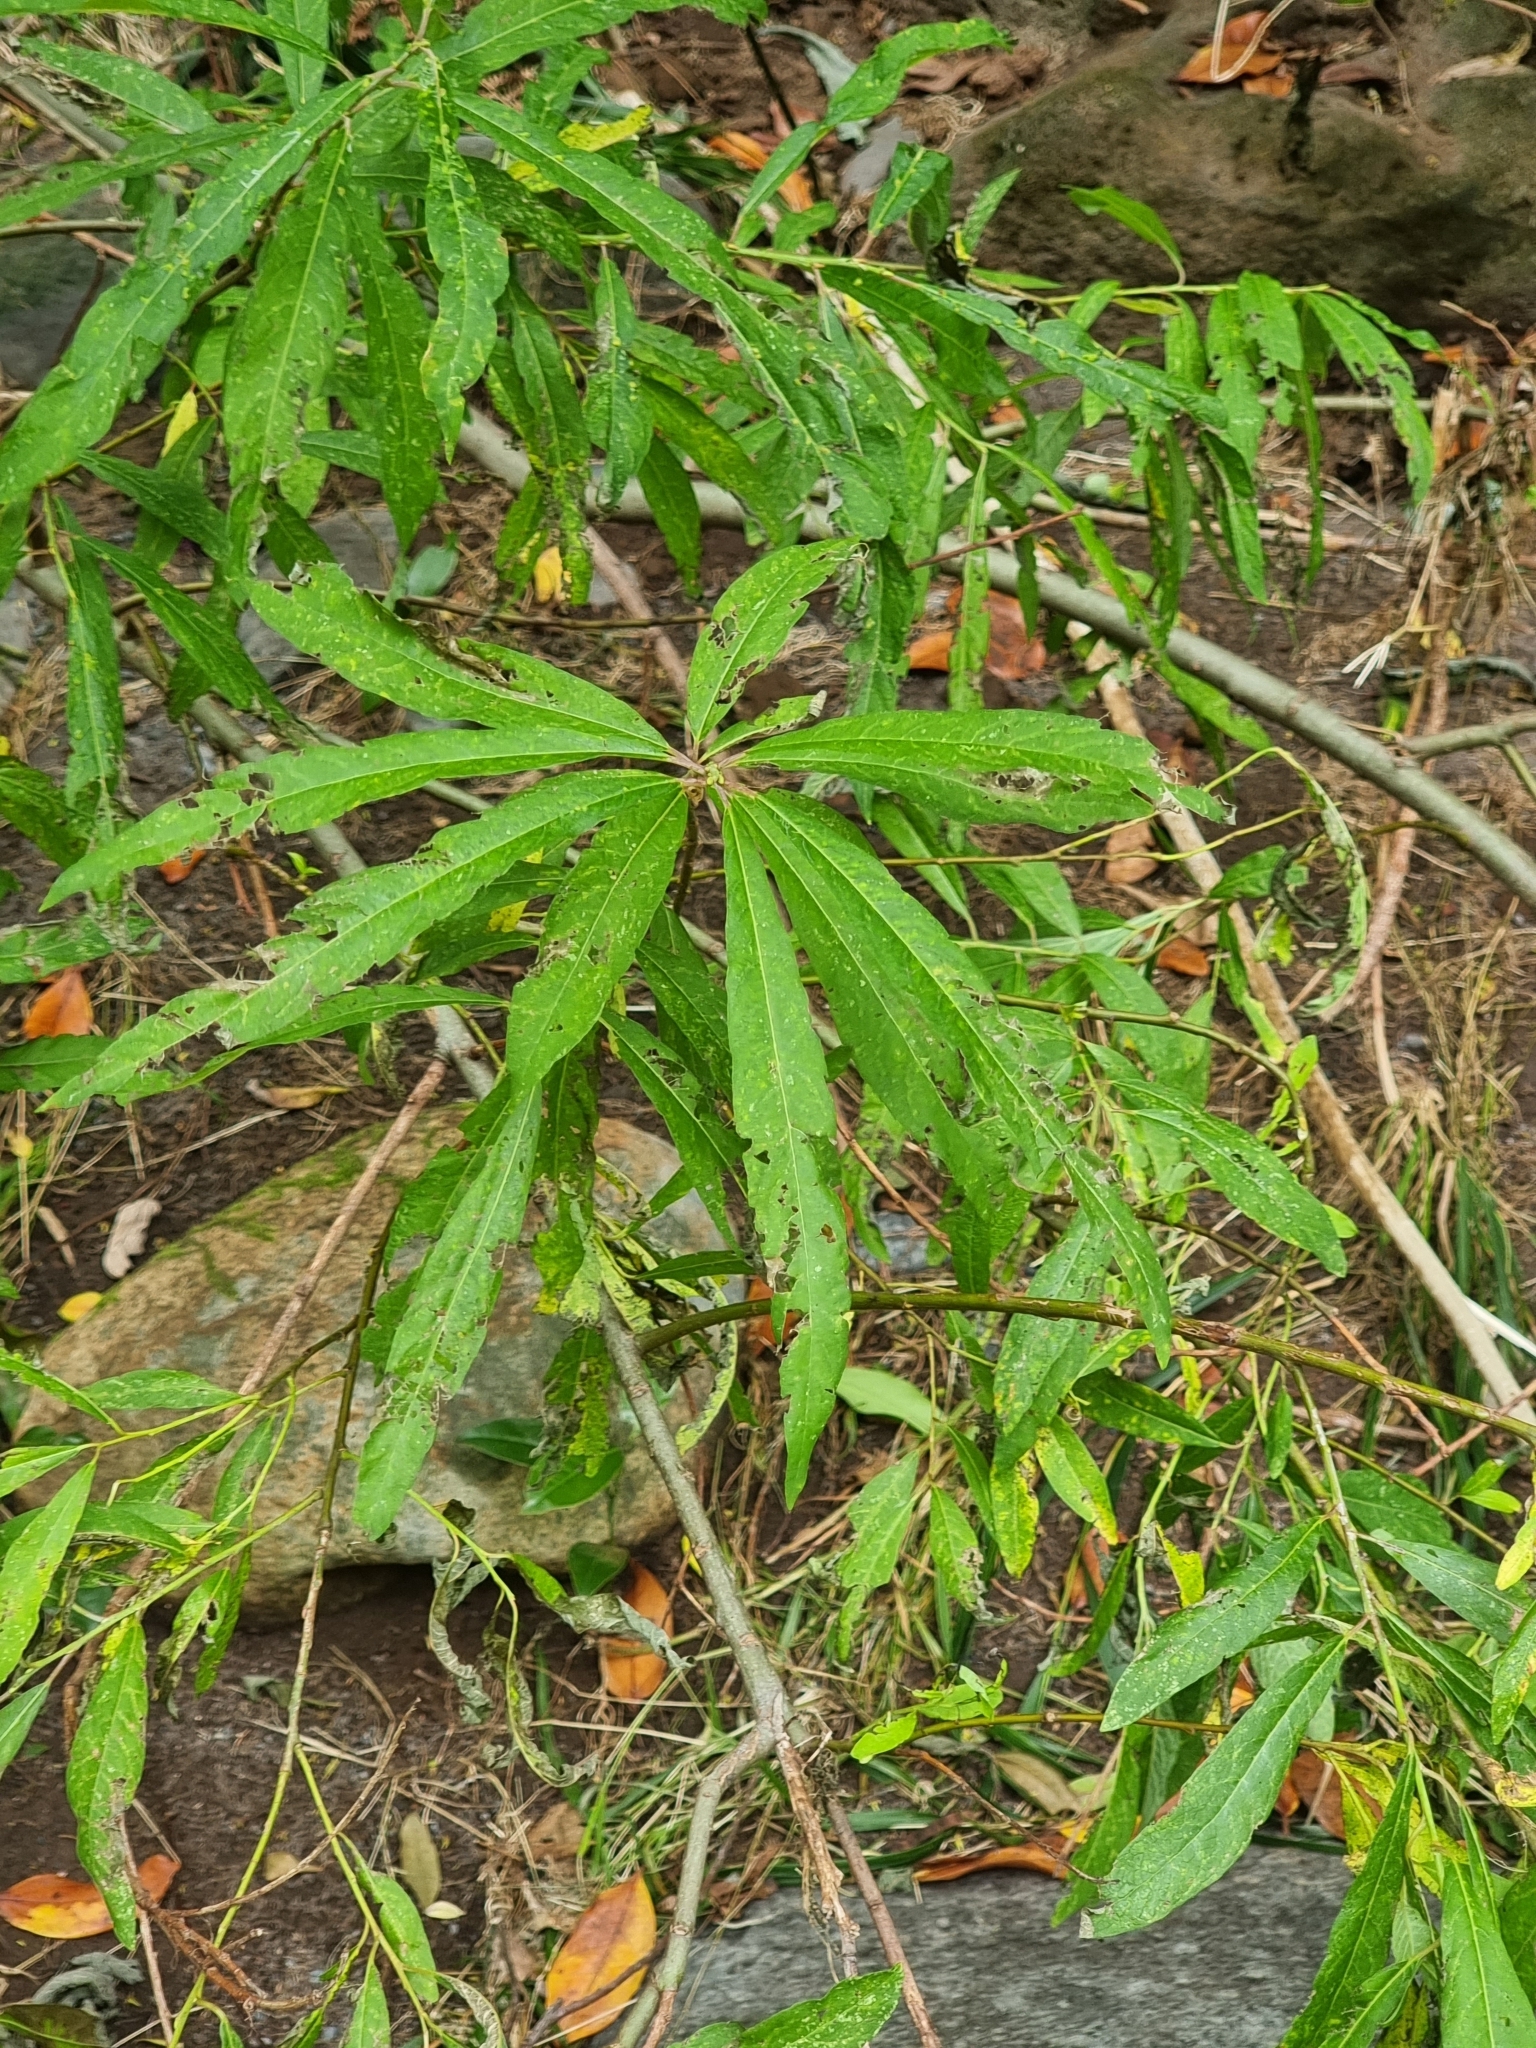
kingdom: Plantae
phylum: Tracheophyta
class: Magnoliopsida
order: Malpighiales
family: Salicaceae
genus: Salix
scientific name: Salix canariensis
